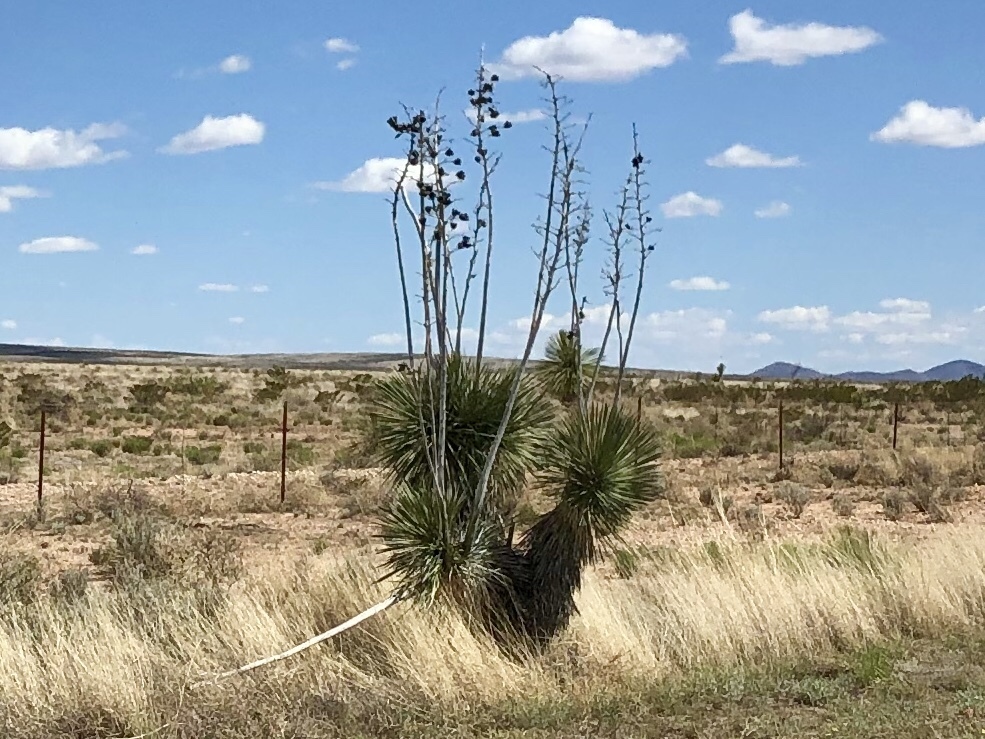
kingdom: Plantae
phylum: Tracheophyta
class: Liliopsida
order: Asparagales
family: Asparagaceae
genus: Yucca
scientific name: Yucca elata
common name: Palmella
